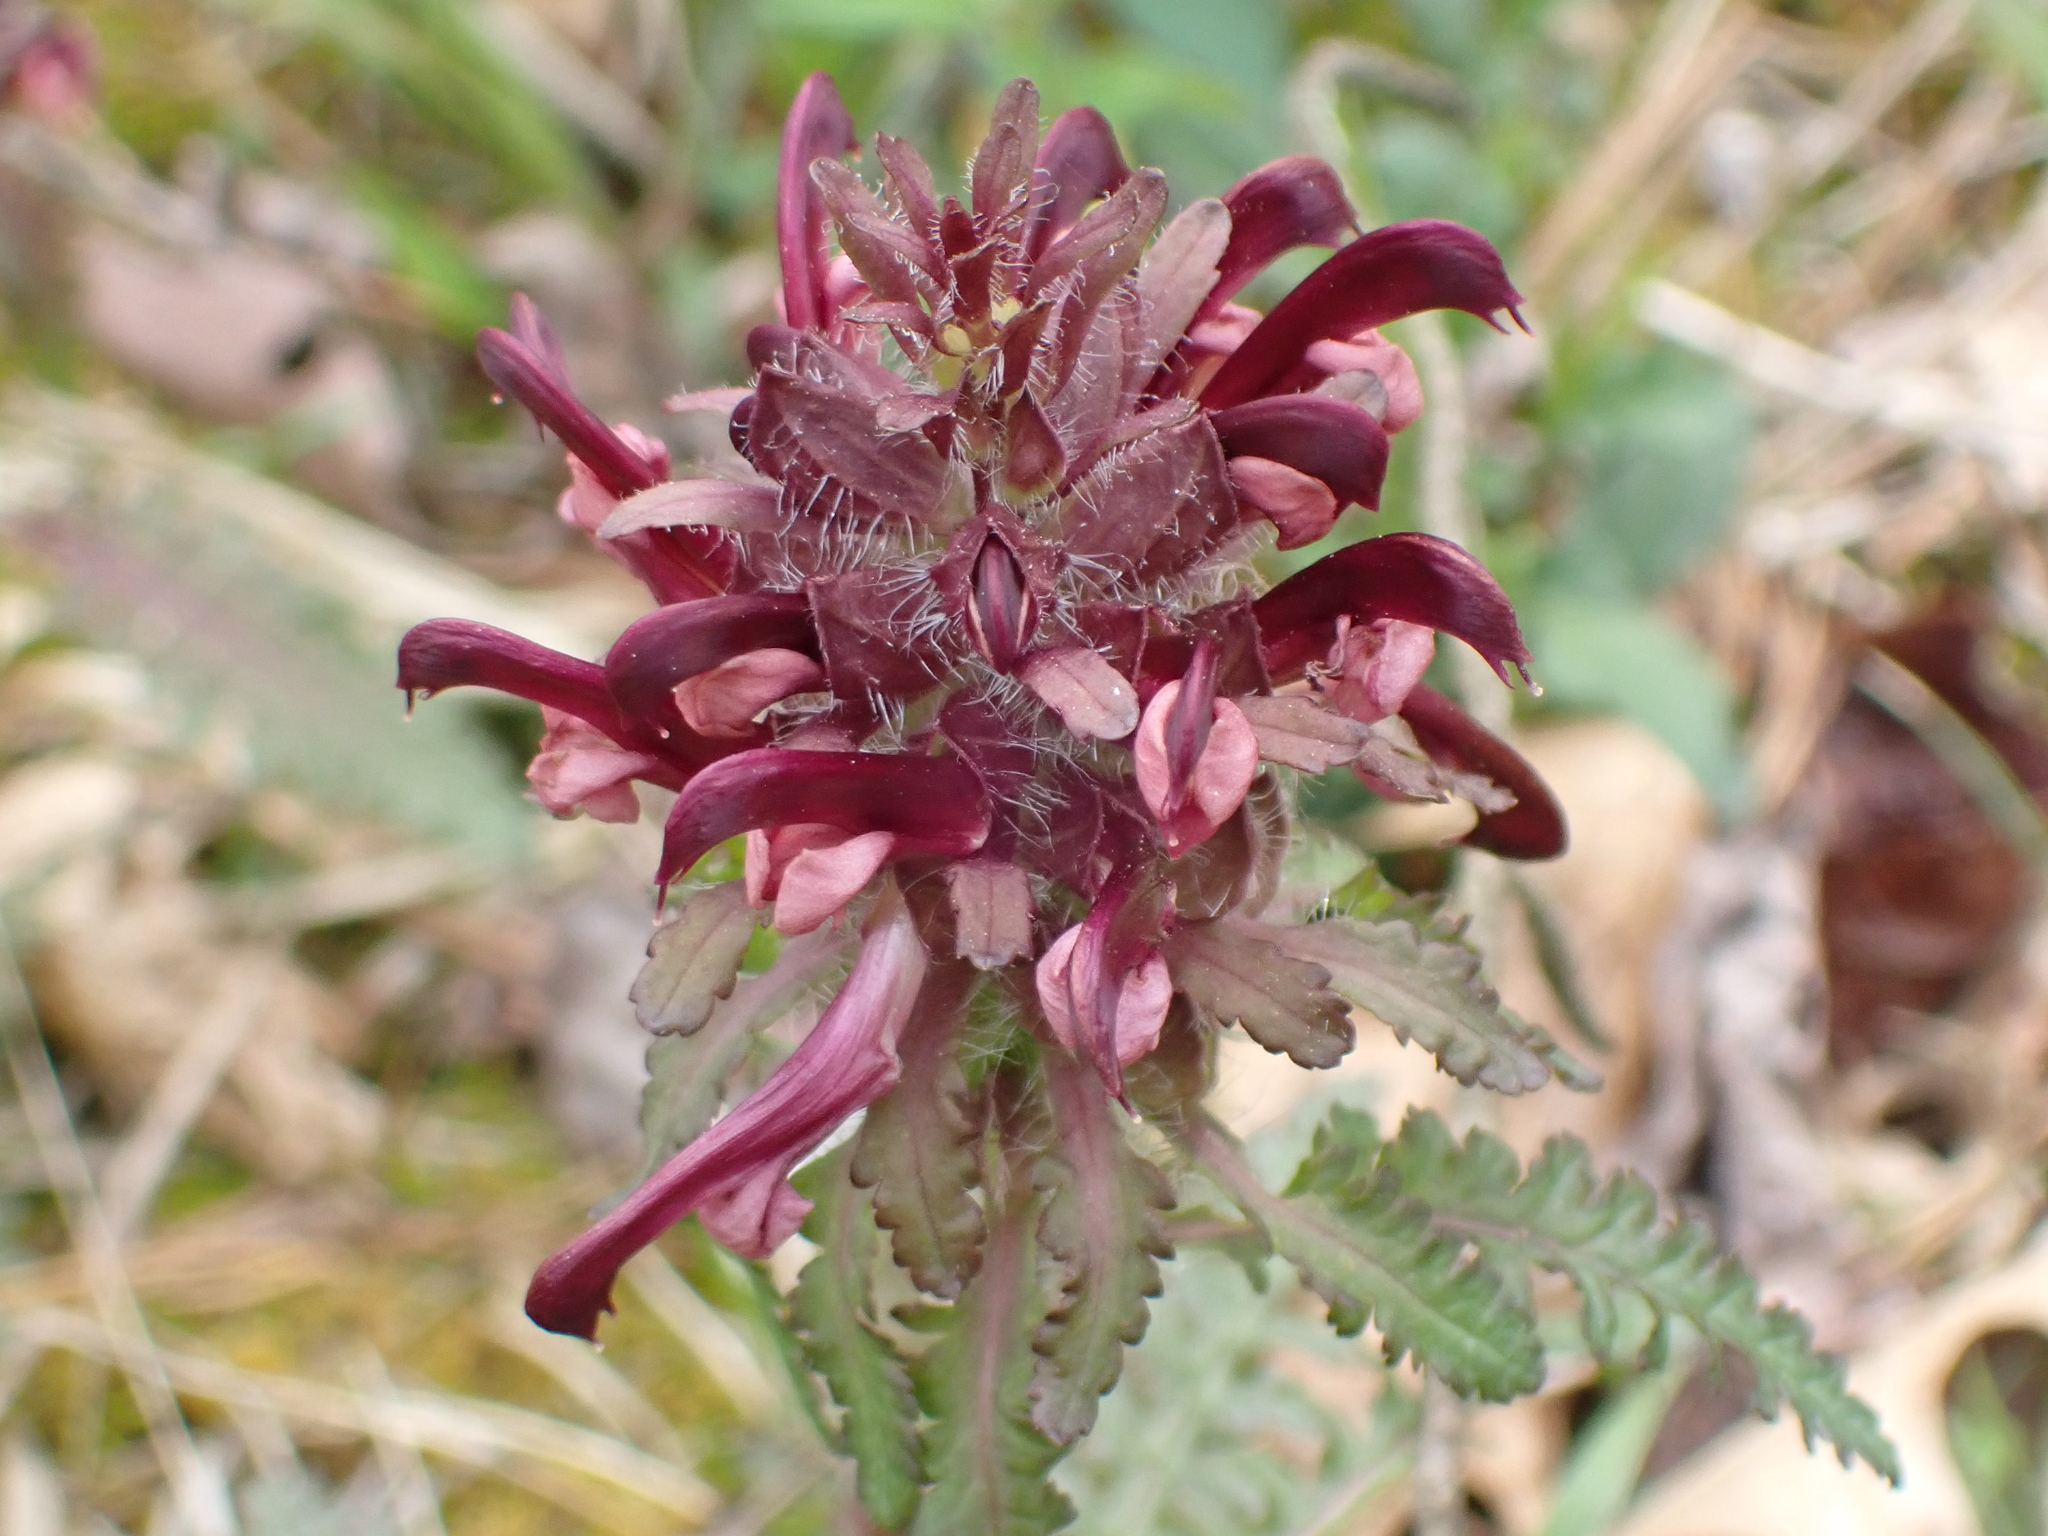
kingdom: Plantae
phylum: Tracheophyta
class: Magnoliopsida
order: Lamiales
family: Orobanchaceae
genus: Pedicularis
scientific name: Pedicularis canadensis
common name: Early lousewort
